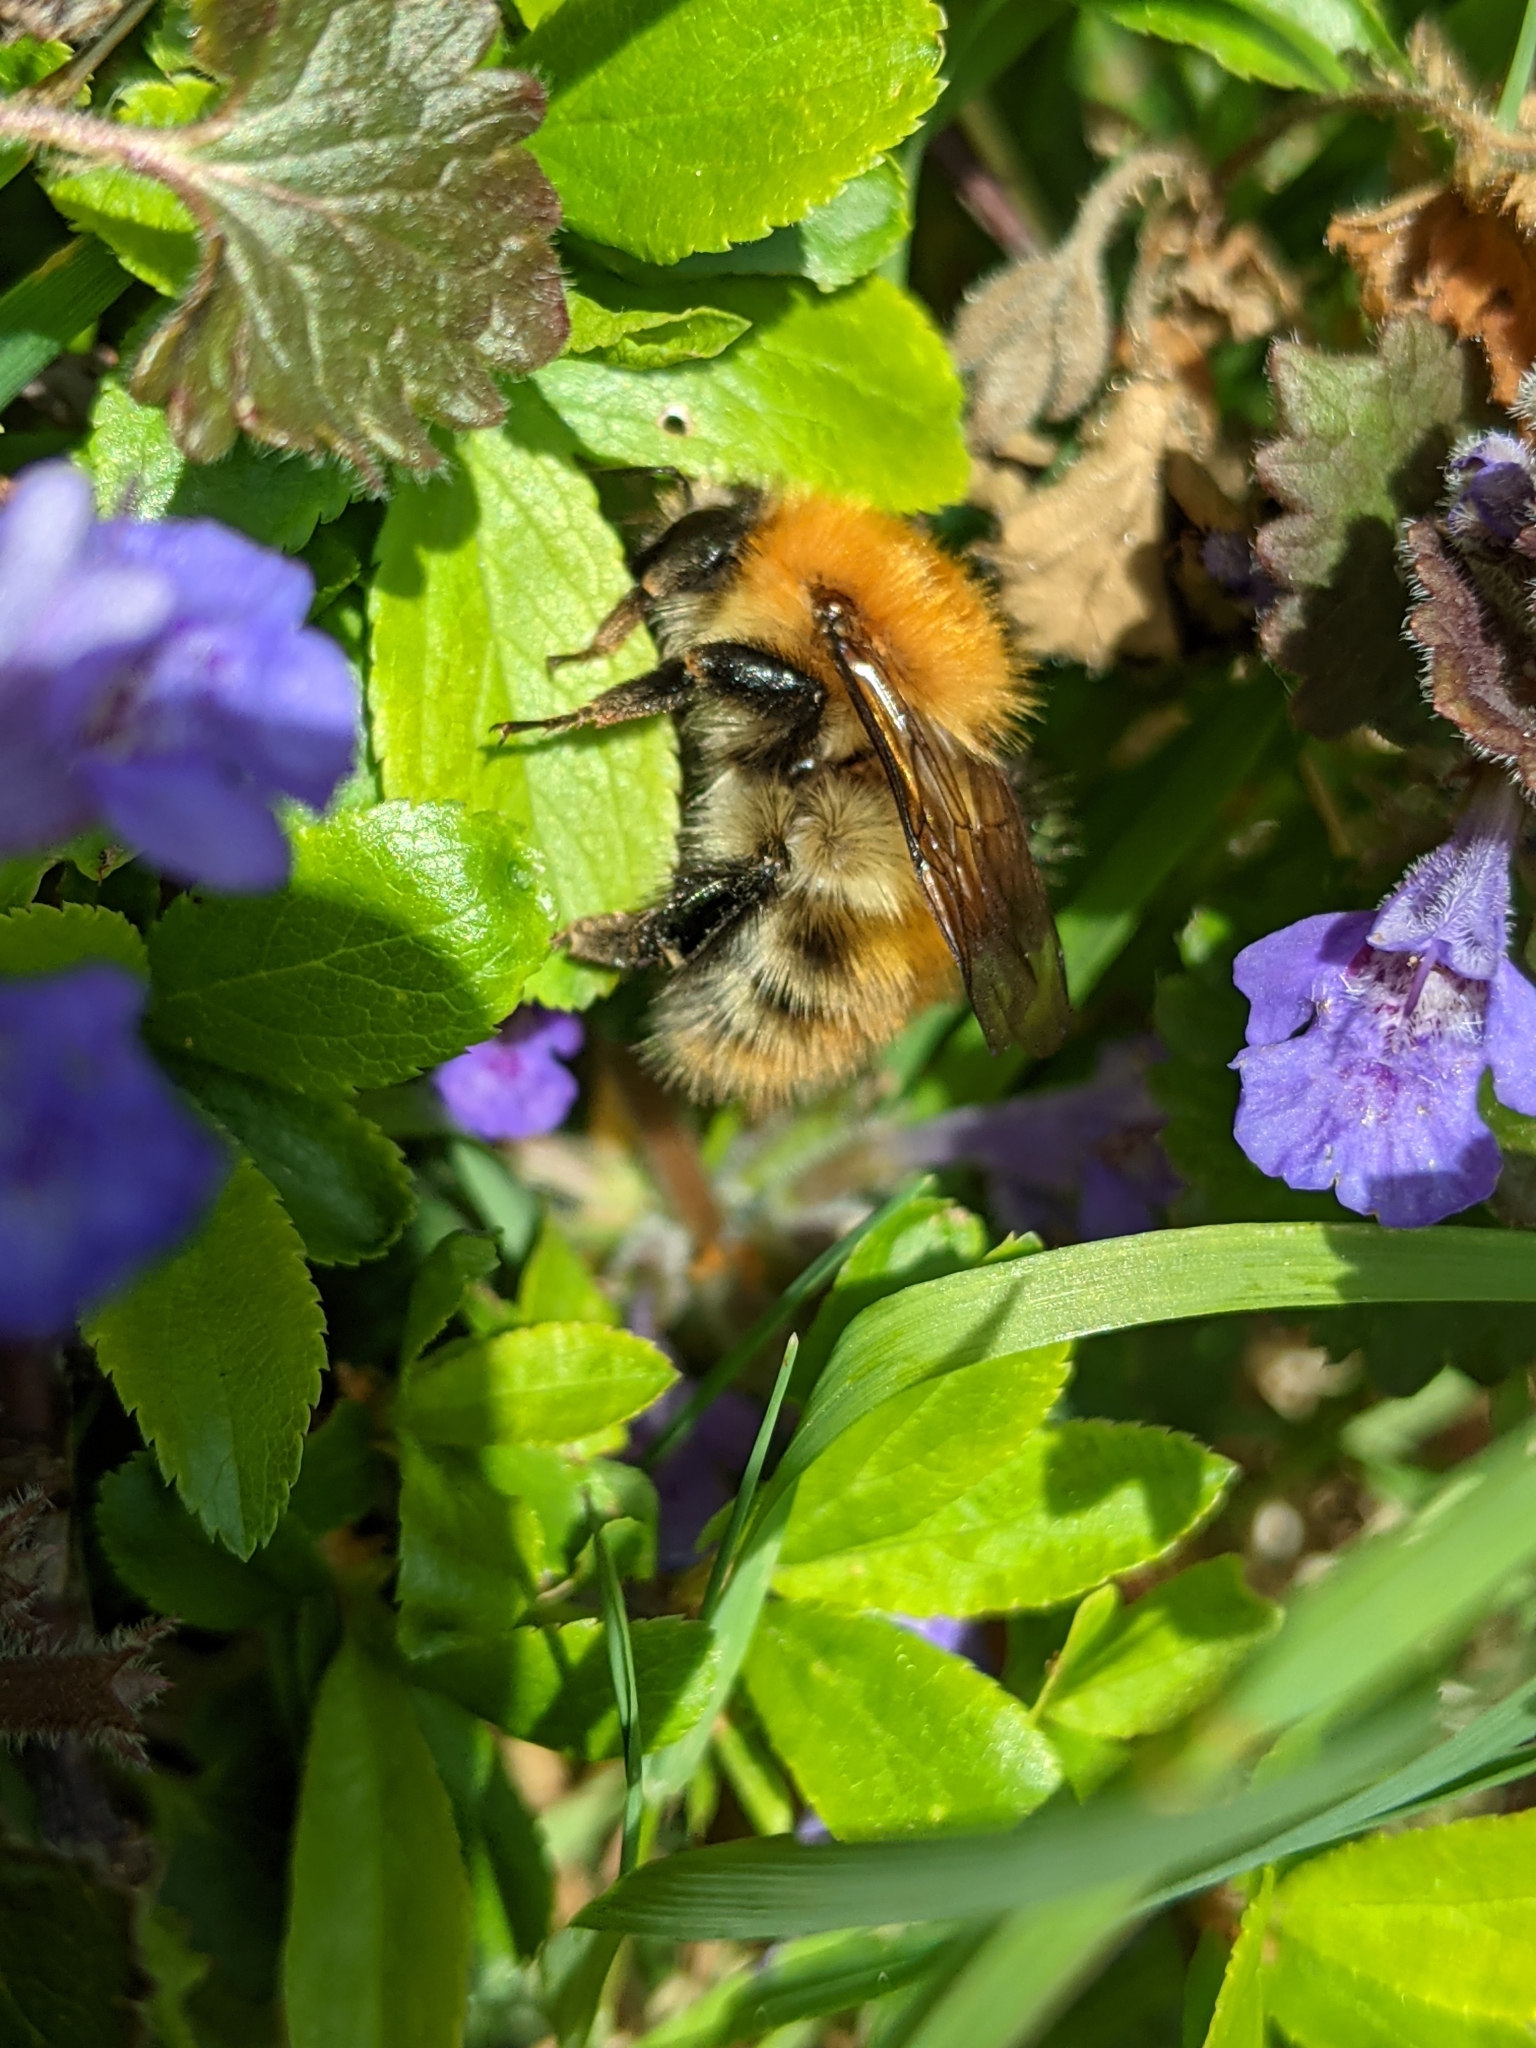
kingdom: Animalia
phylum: Arthropoda
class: Insecta
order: Hymenoptera
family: Apidae
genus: Bombus
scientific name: Bombus pascuorum
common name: Common carder bee
